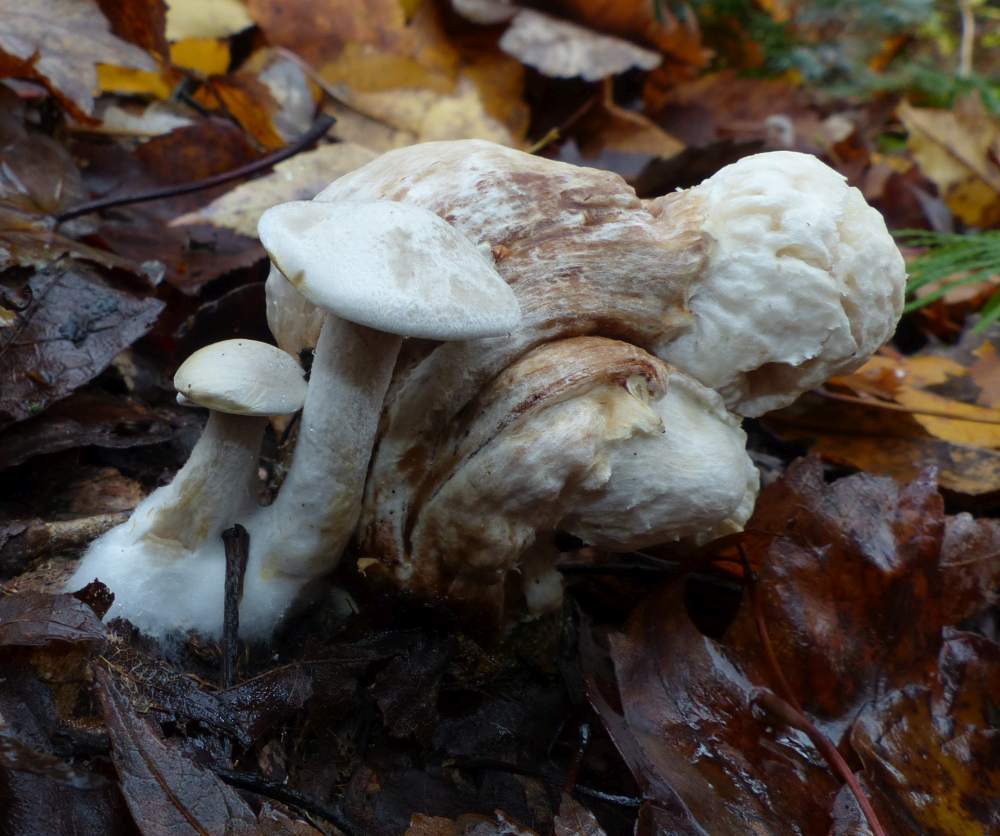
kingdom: Fungi
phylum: Basidiomycota
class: Agaricomycetes
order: Agaricales
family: Entolomataceae
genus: Entoloma
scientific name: Entoloma abortivum
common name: Aborted entoloma
